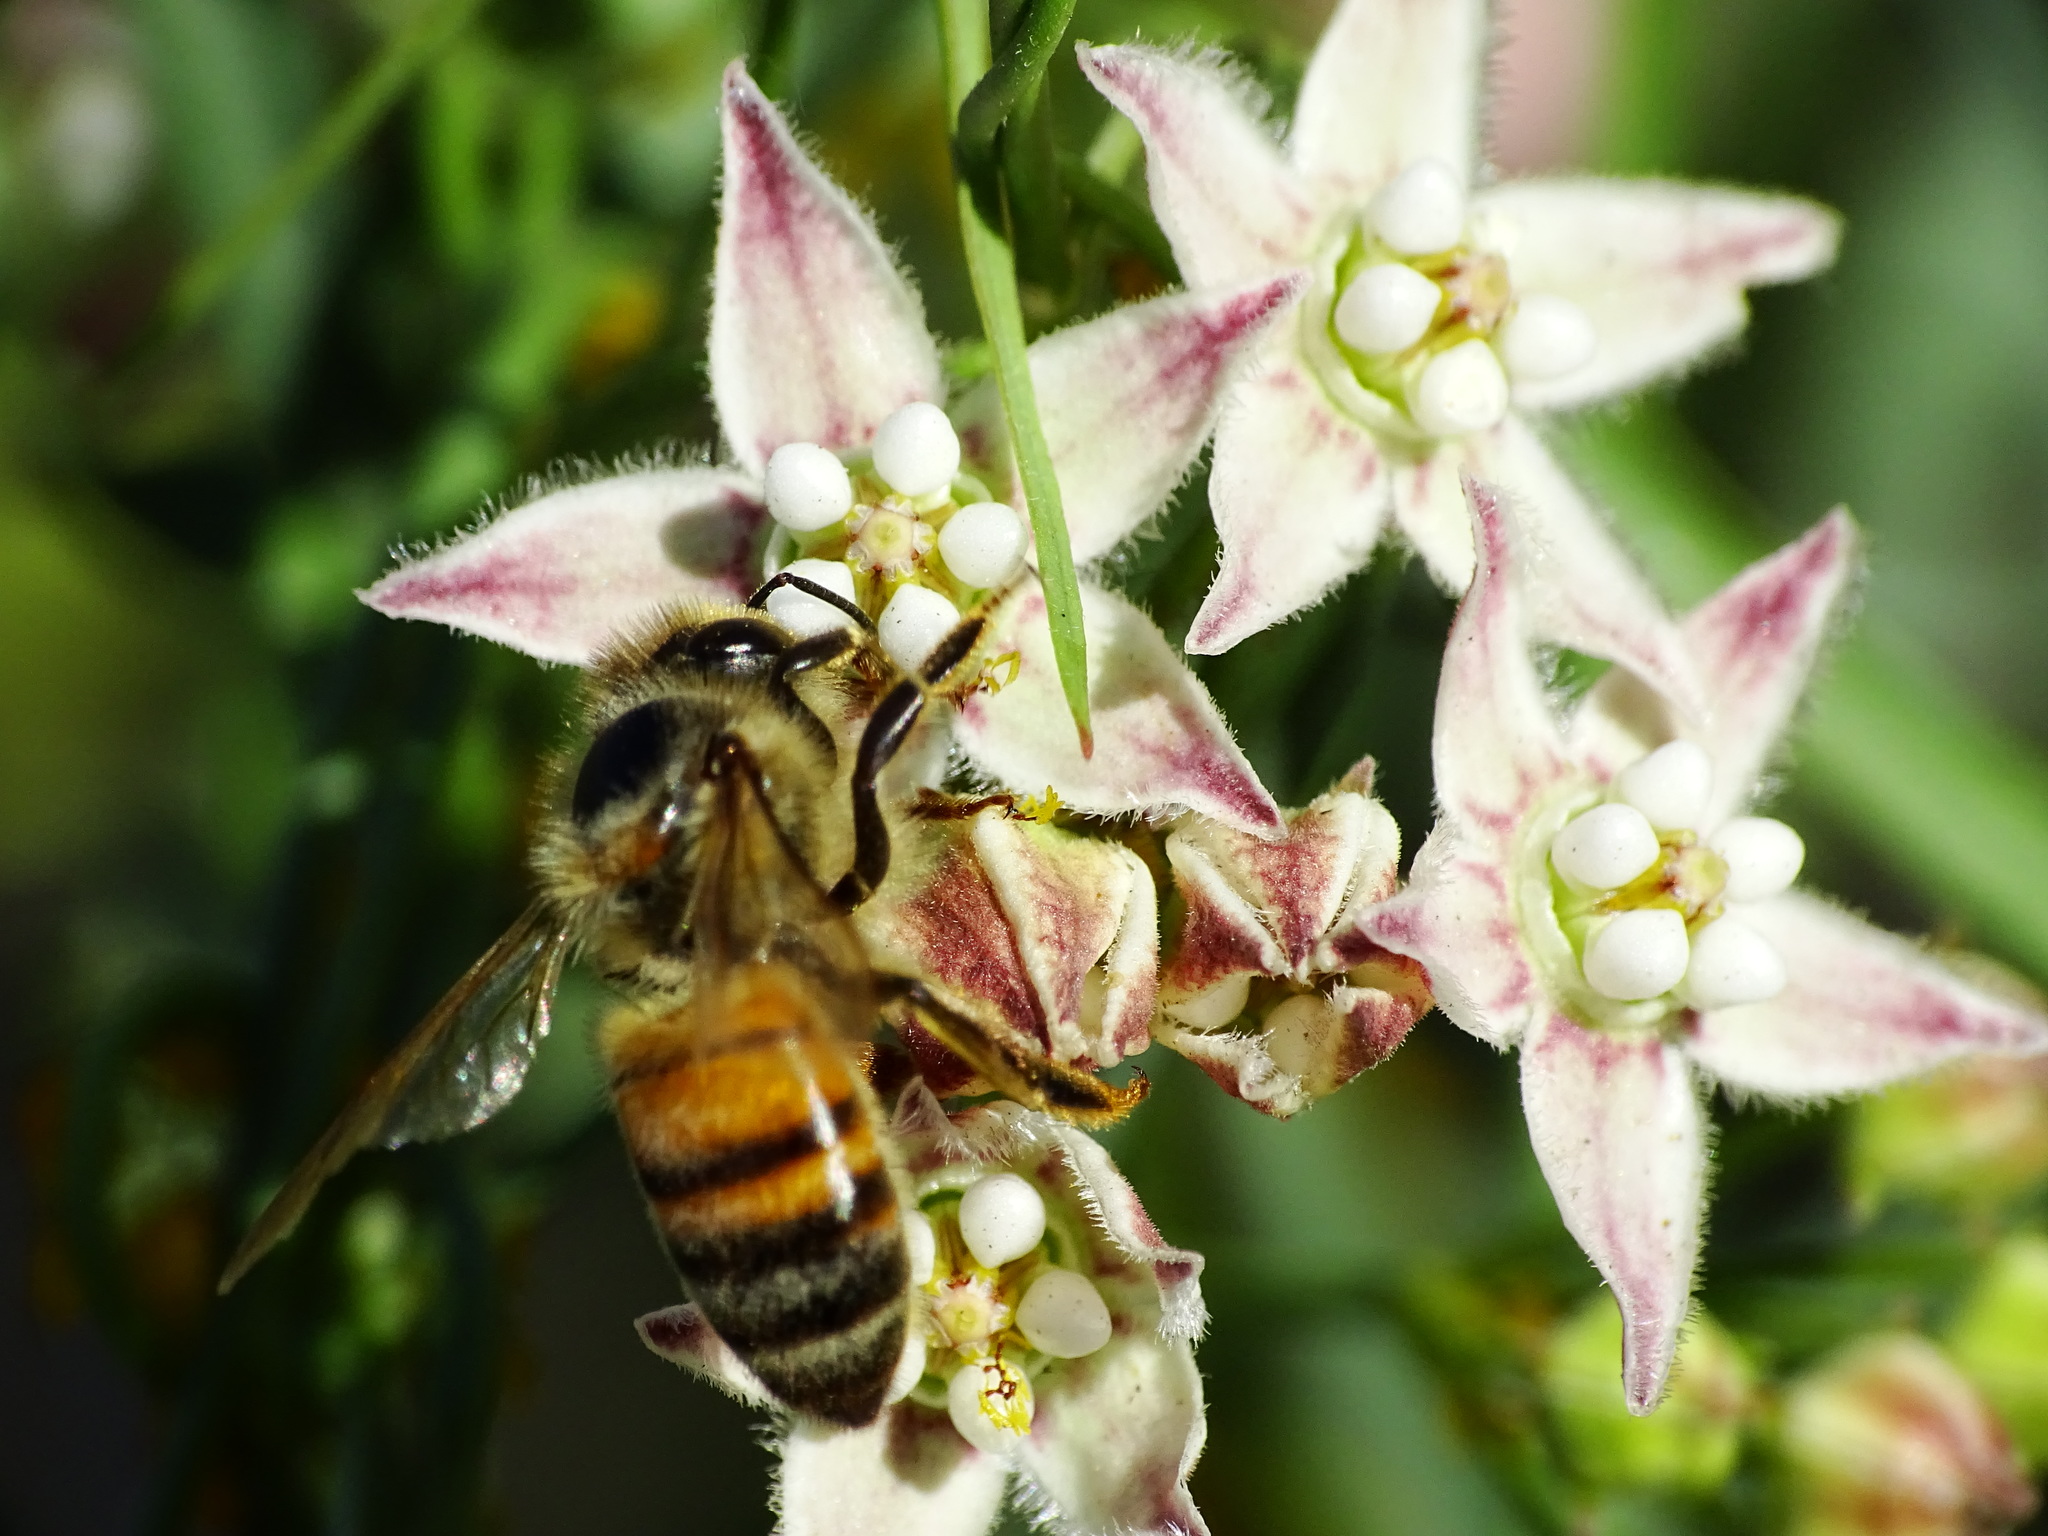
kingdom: Animalia
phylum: Arthropoda
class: Insecta
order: Hymenoptera
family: Apidae
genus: Apis
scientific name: Apis mellifera
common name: Honey bee
